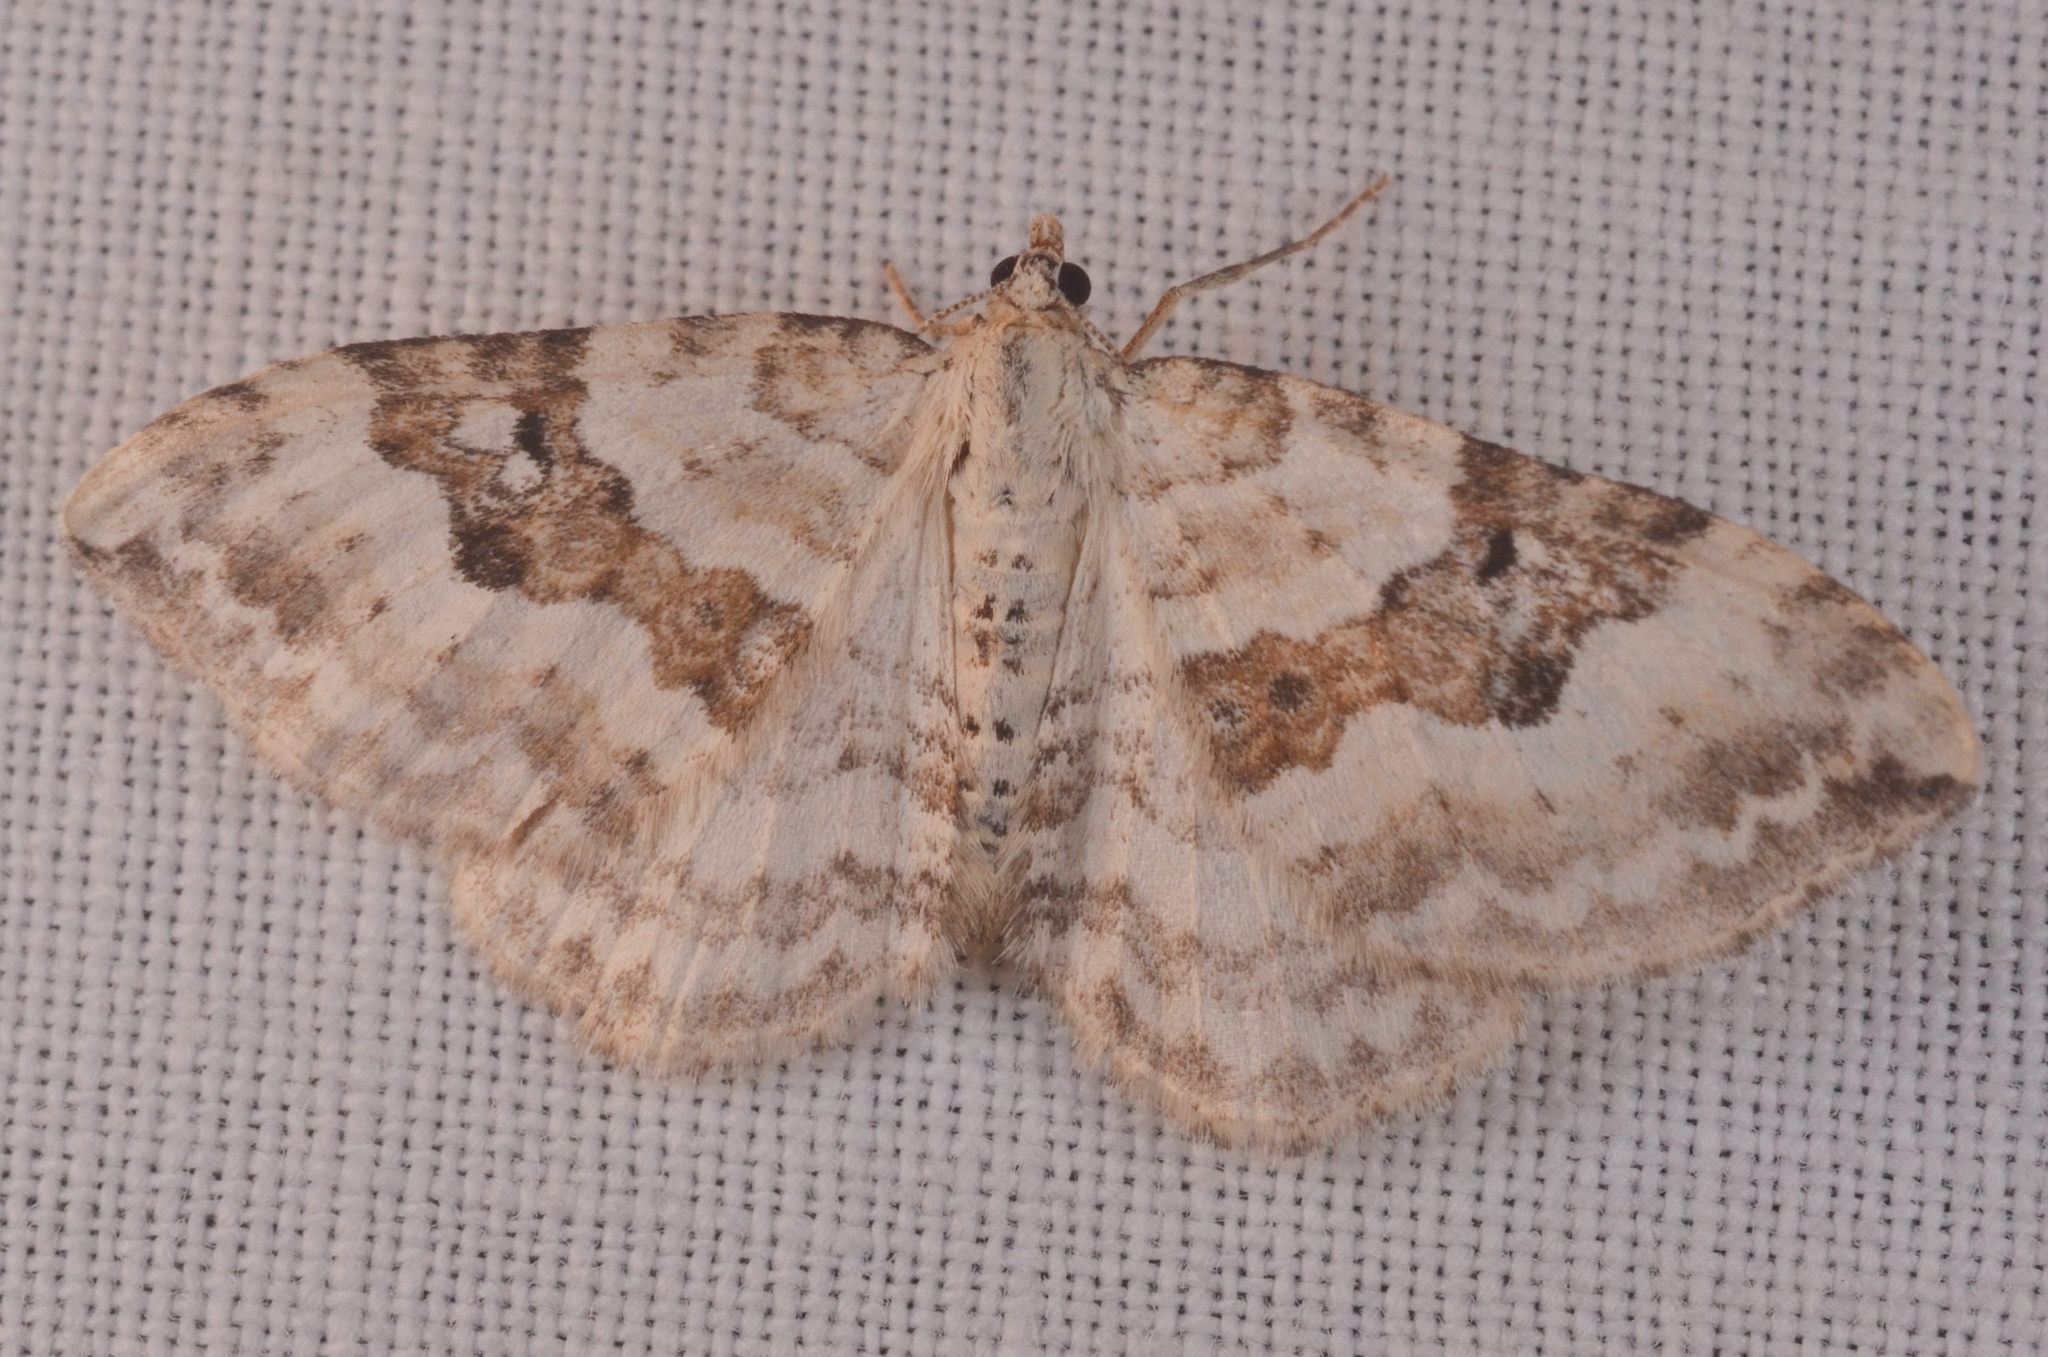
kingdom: Animalia
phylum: Arthropoda
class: Insecta
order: Lepidoptera
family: Geometridae
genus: Xanthorhoe
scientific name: Xanthorhoe montanata
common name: Silver-ground carpet
